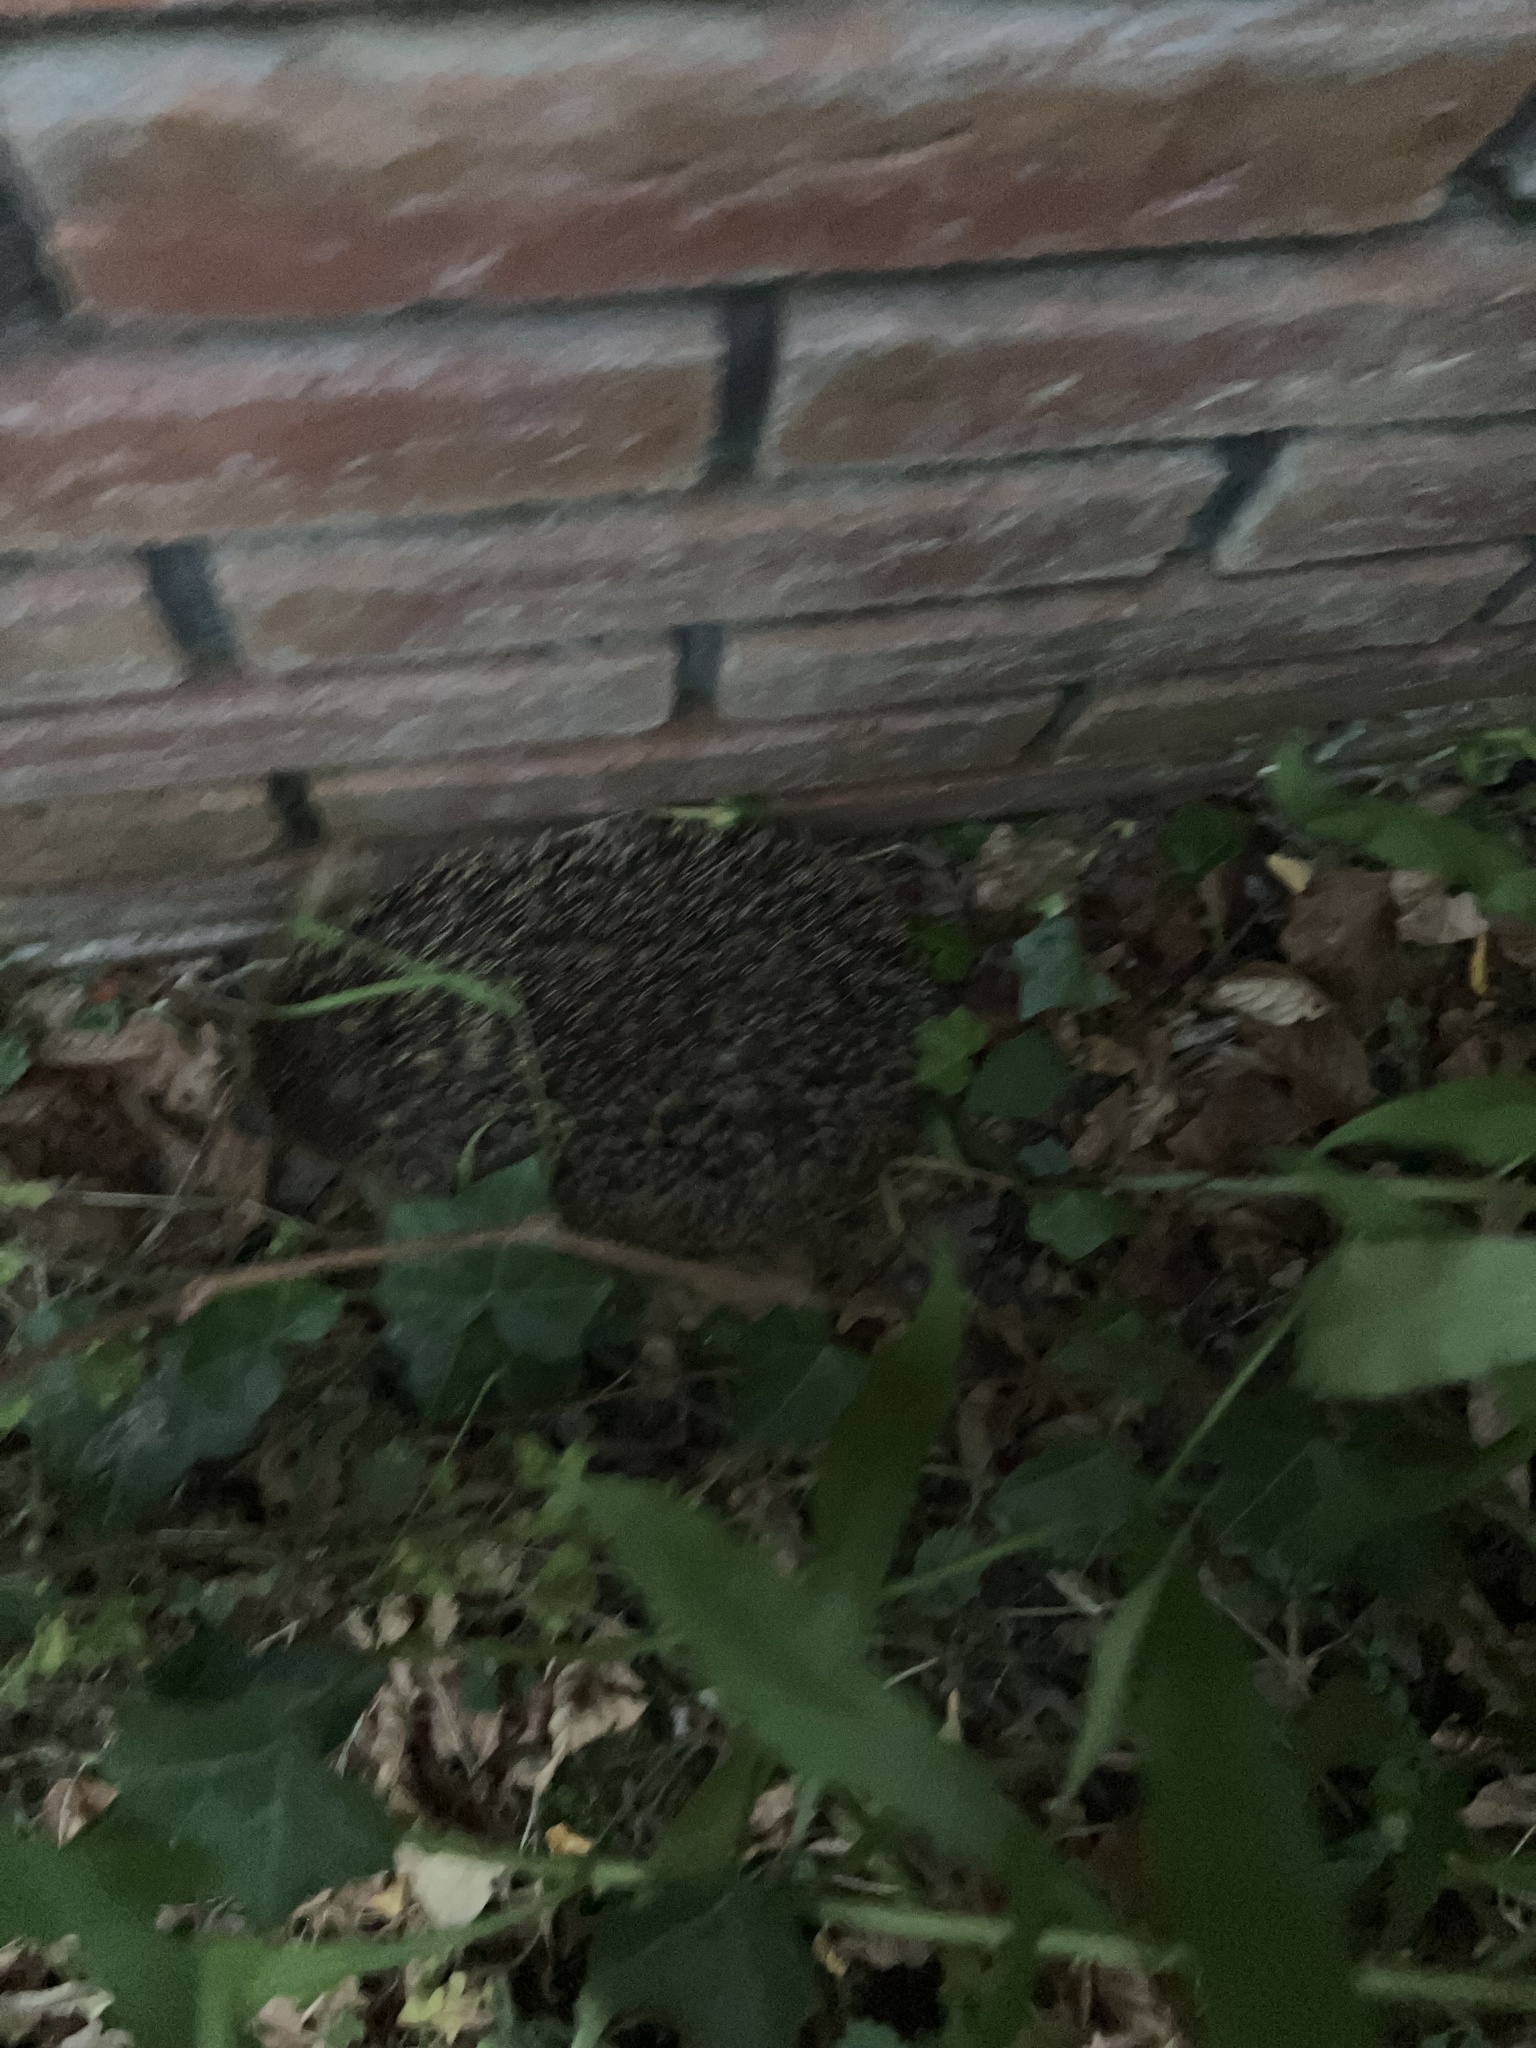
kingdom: Animalia
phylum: Chordata
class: Mammalia
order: Erinaceomorpha
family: Erinaceidae
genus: Erinaceus
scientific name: Erinaceus europaeus
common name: West european hedgehog
